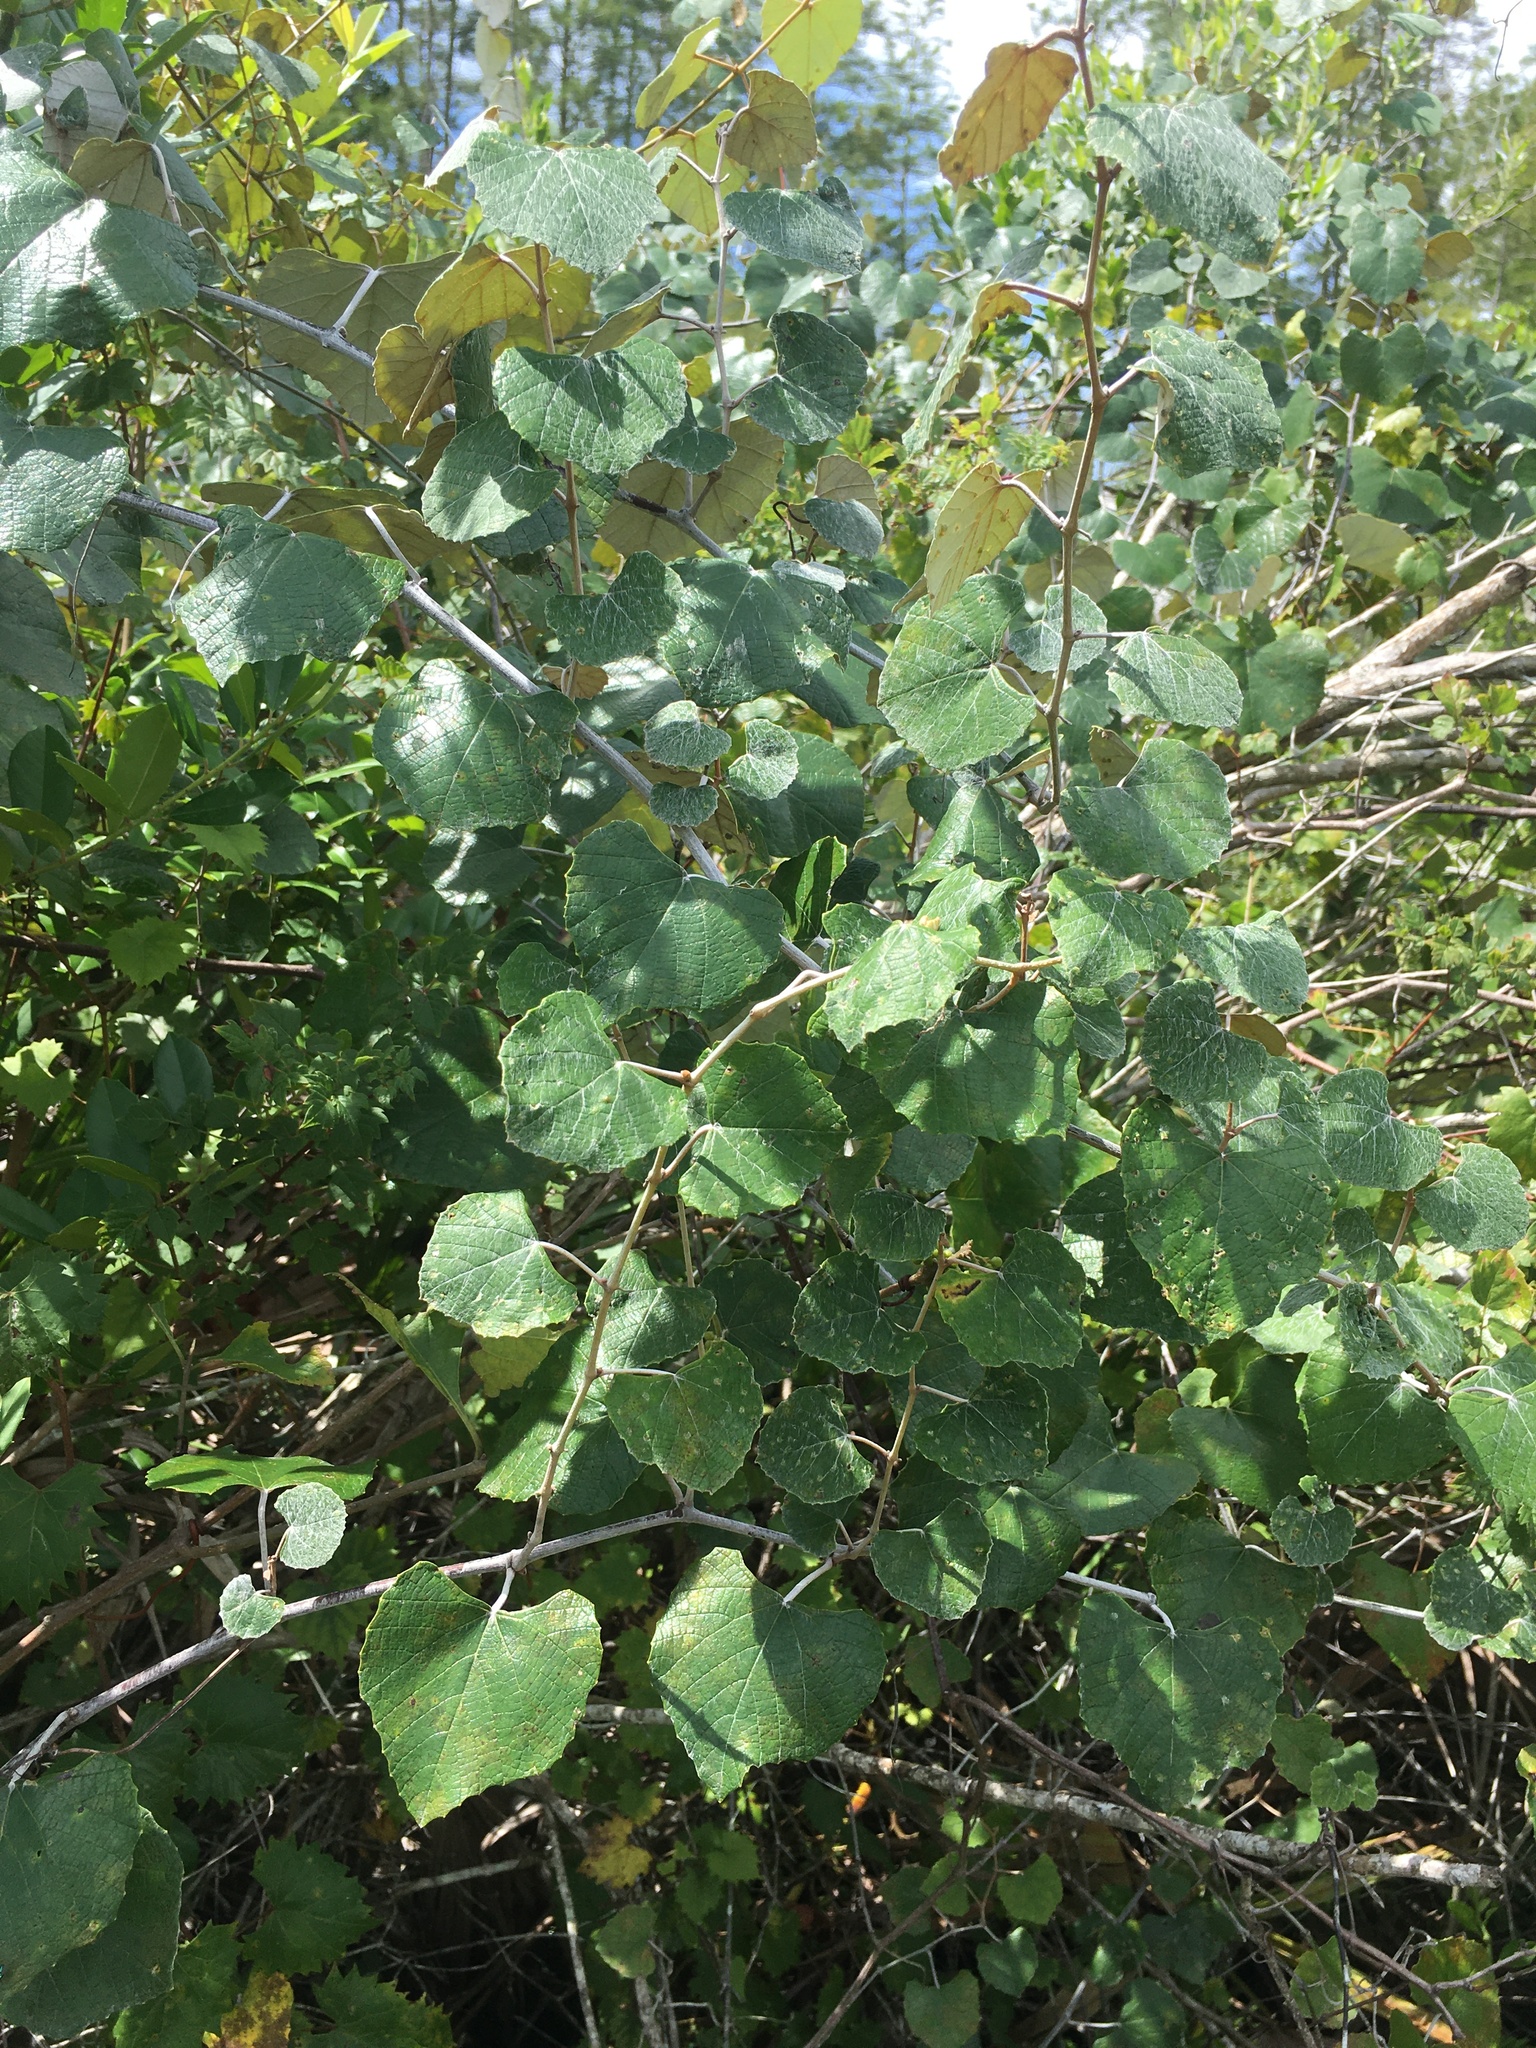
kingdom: Plantae
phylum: Tracheophyta
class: Magnoliopsida
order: Vitales
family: Vitaceae
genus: Vitis
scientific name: Vitis shuttleworthii
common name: Caloosa grape
